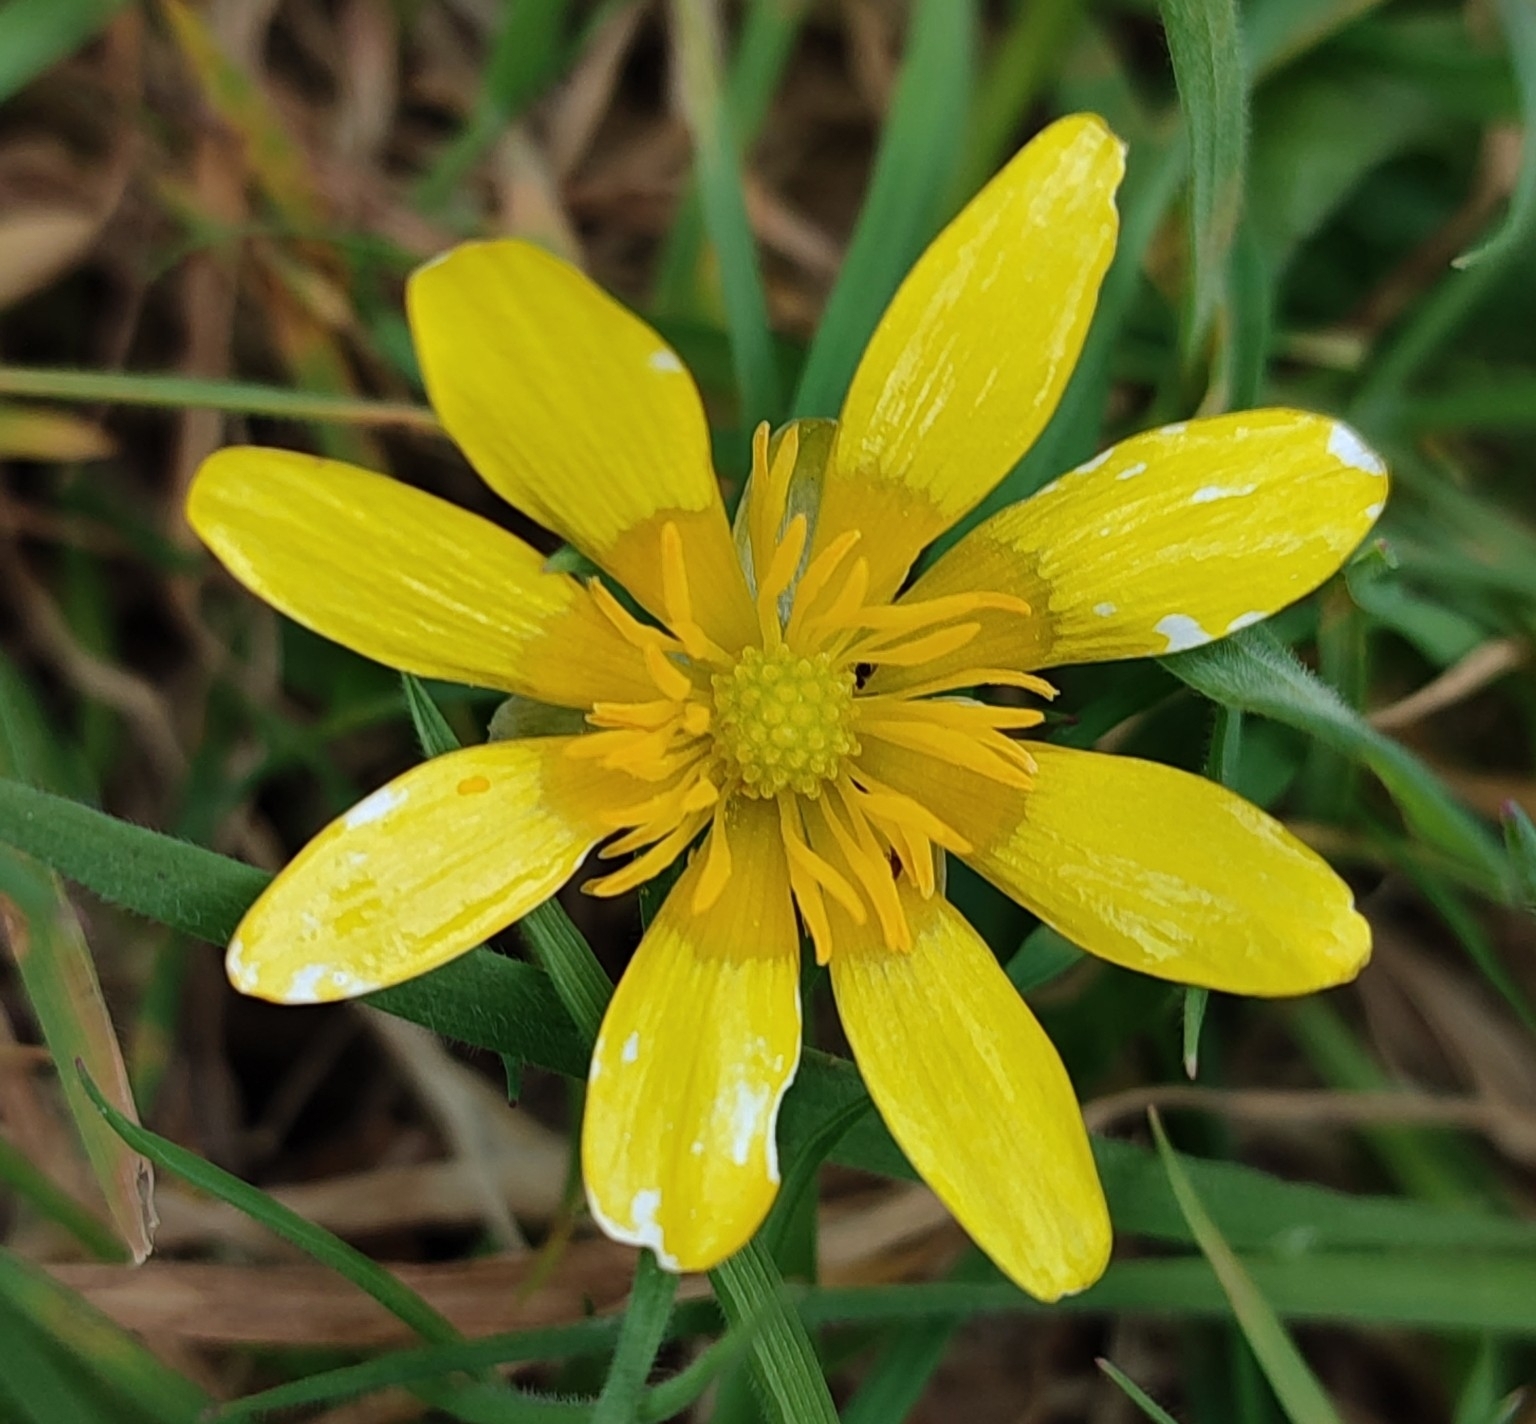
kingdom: Plantae
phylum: Tracheophyta
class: Magnoliopsida
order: Ranunculales
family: Ranunculaceae
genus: Ficaria
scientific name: Ficaria verna
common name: Lesser celandine
